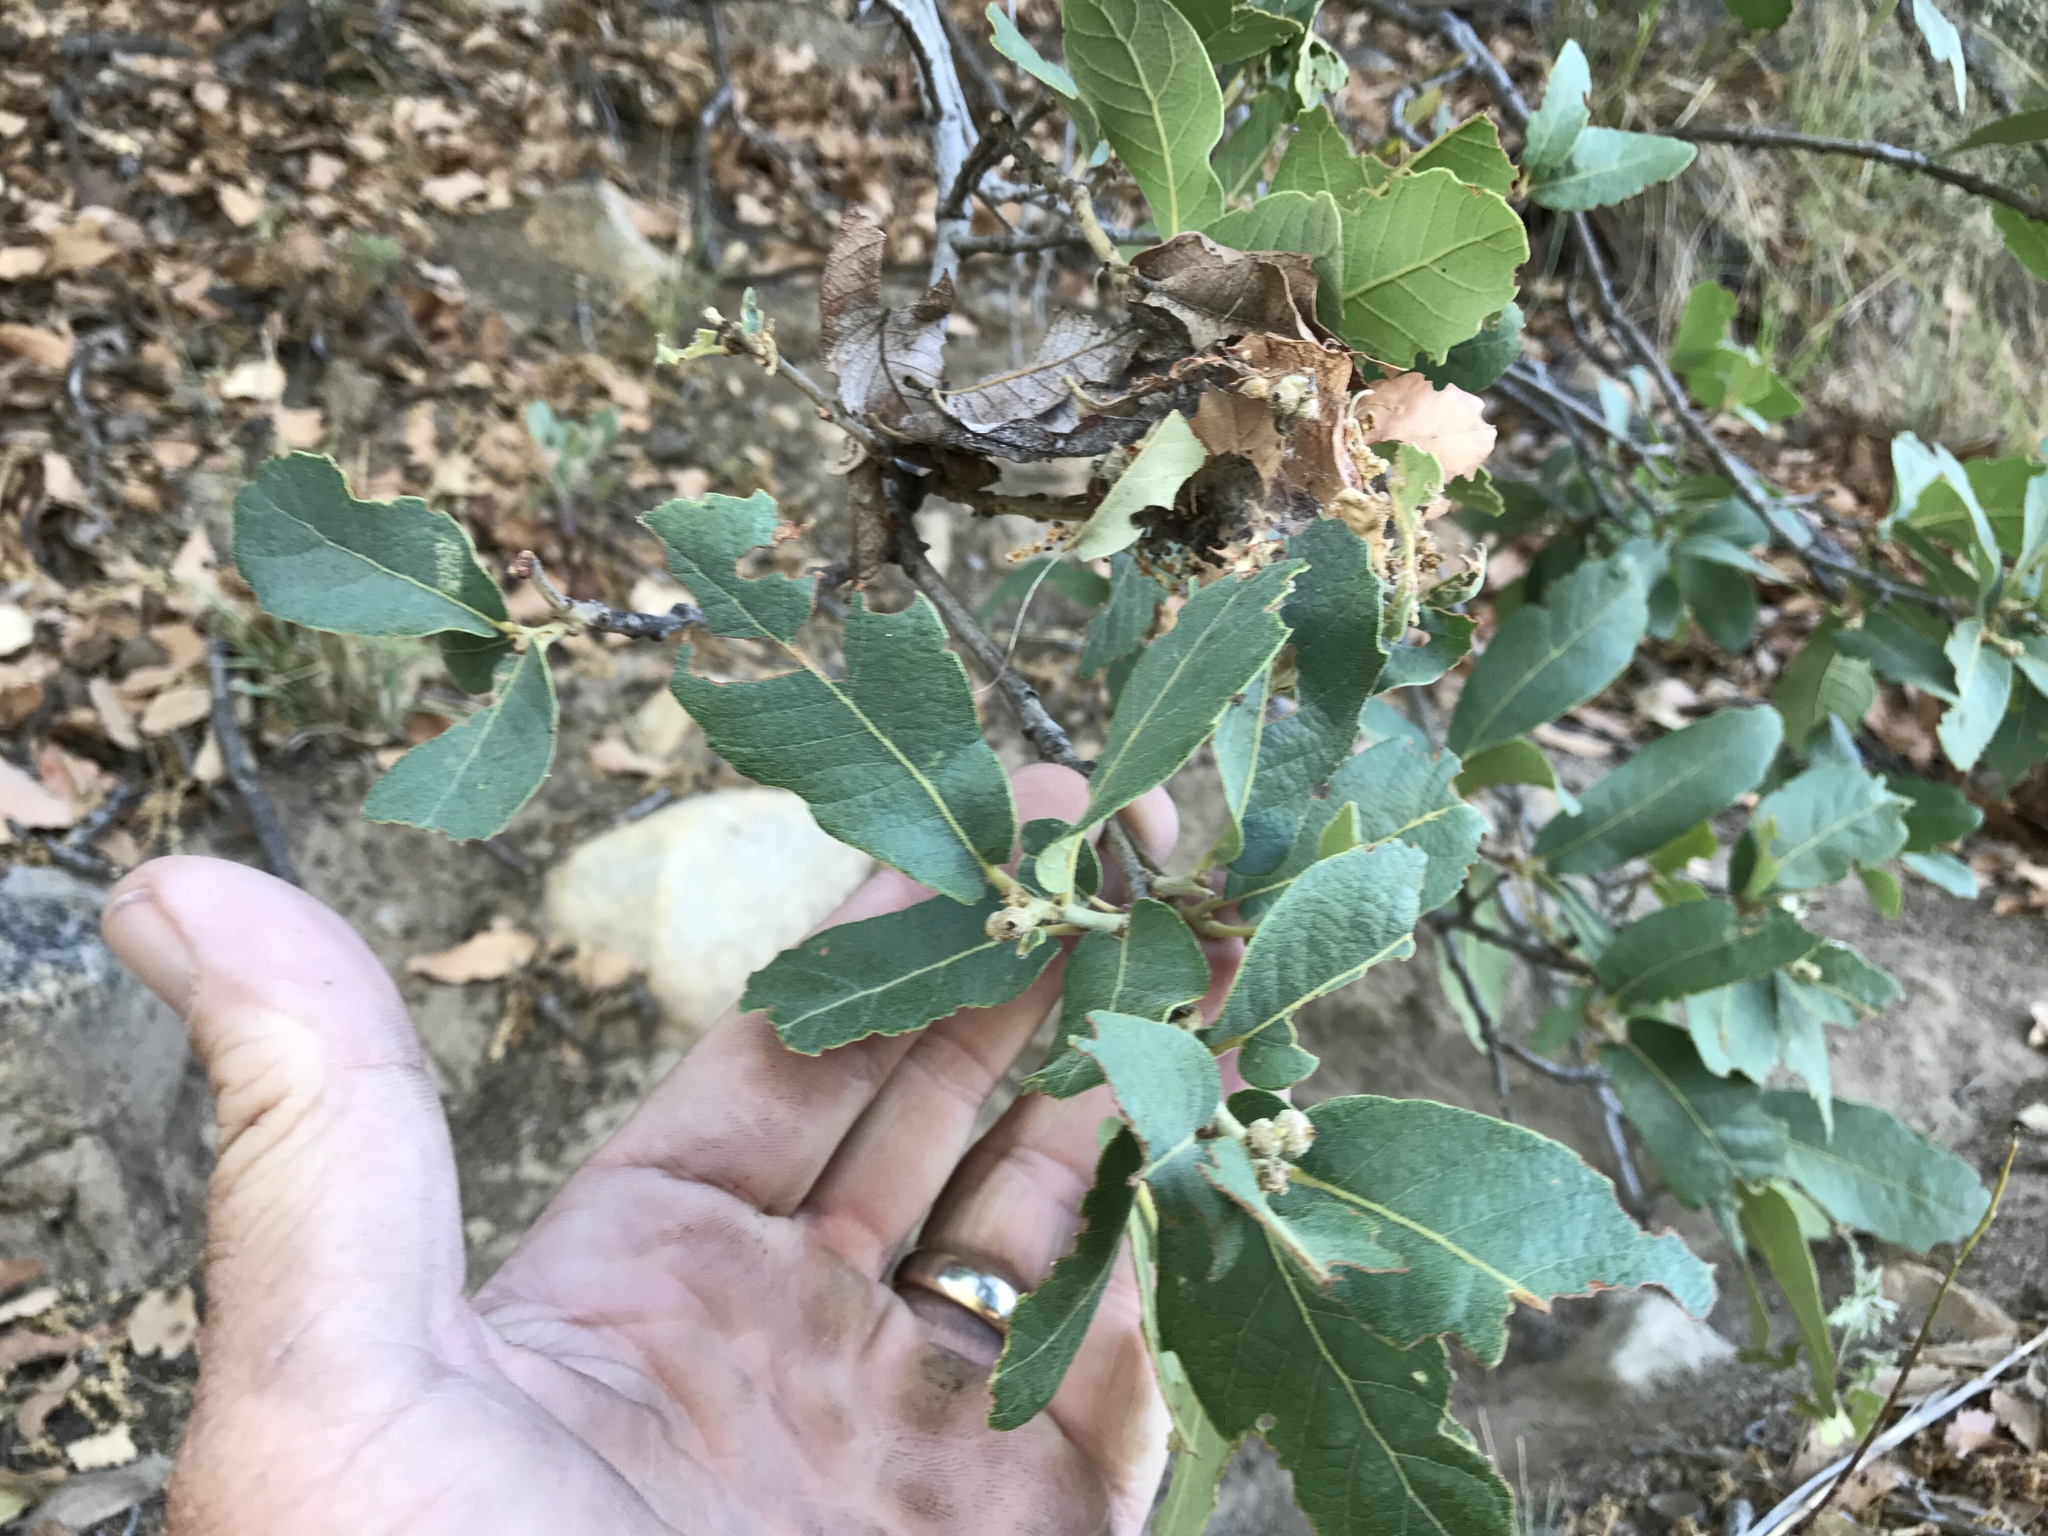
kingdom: Plantae
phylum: Tracheophyta
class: Magnoliopsida
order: Fagales
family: Fagaceae
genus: Quercus
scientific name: Quercus arizonica
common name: Arizona white oak
